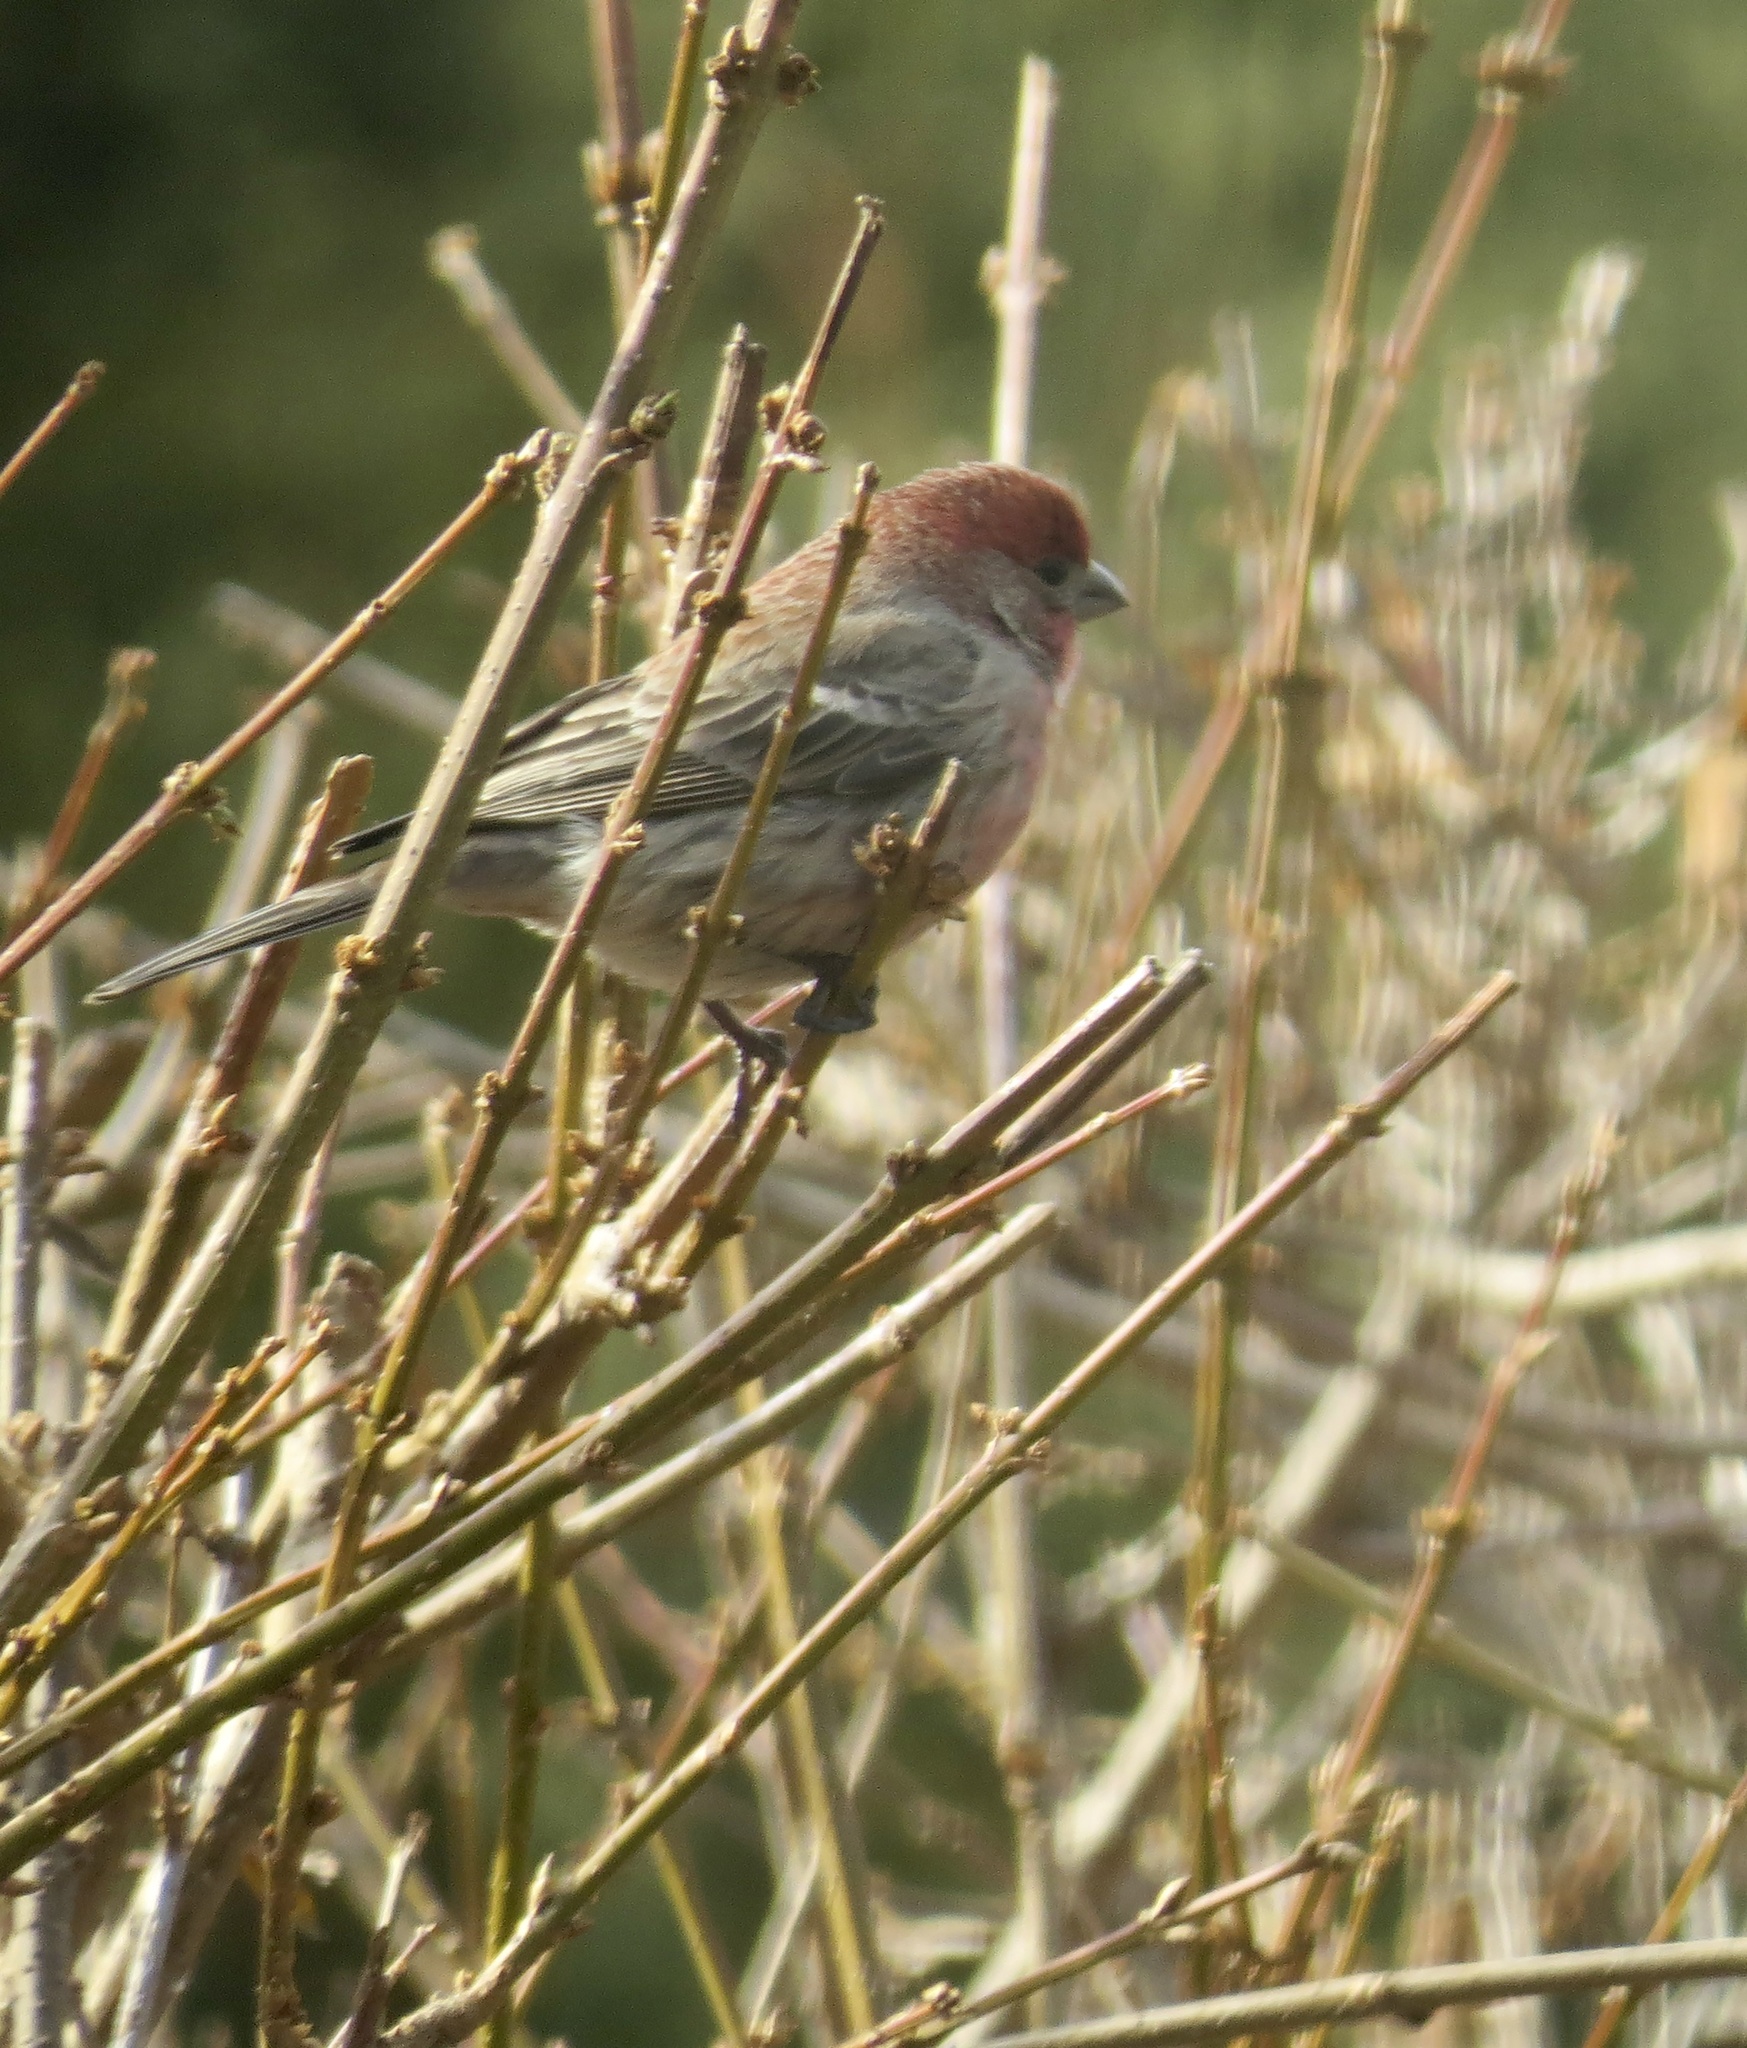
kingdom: Animalia
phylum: Chordata
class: Aves
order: Passeriformes
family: Fringillidae
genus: Haemorhous
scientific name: Haemorhous mexicanus
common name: House finch
